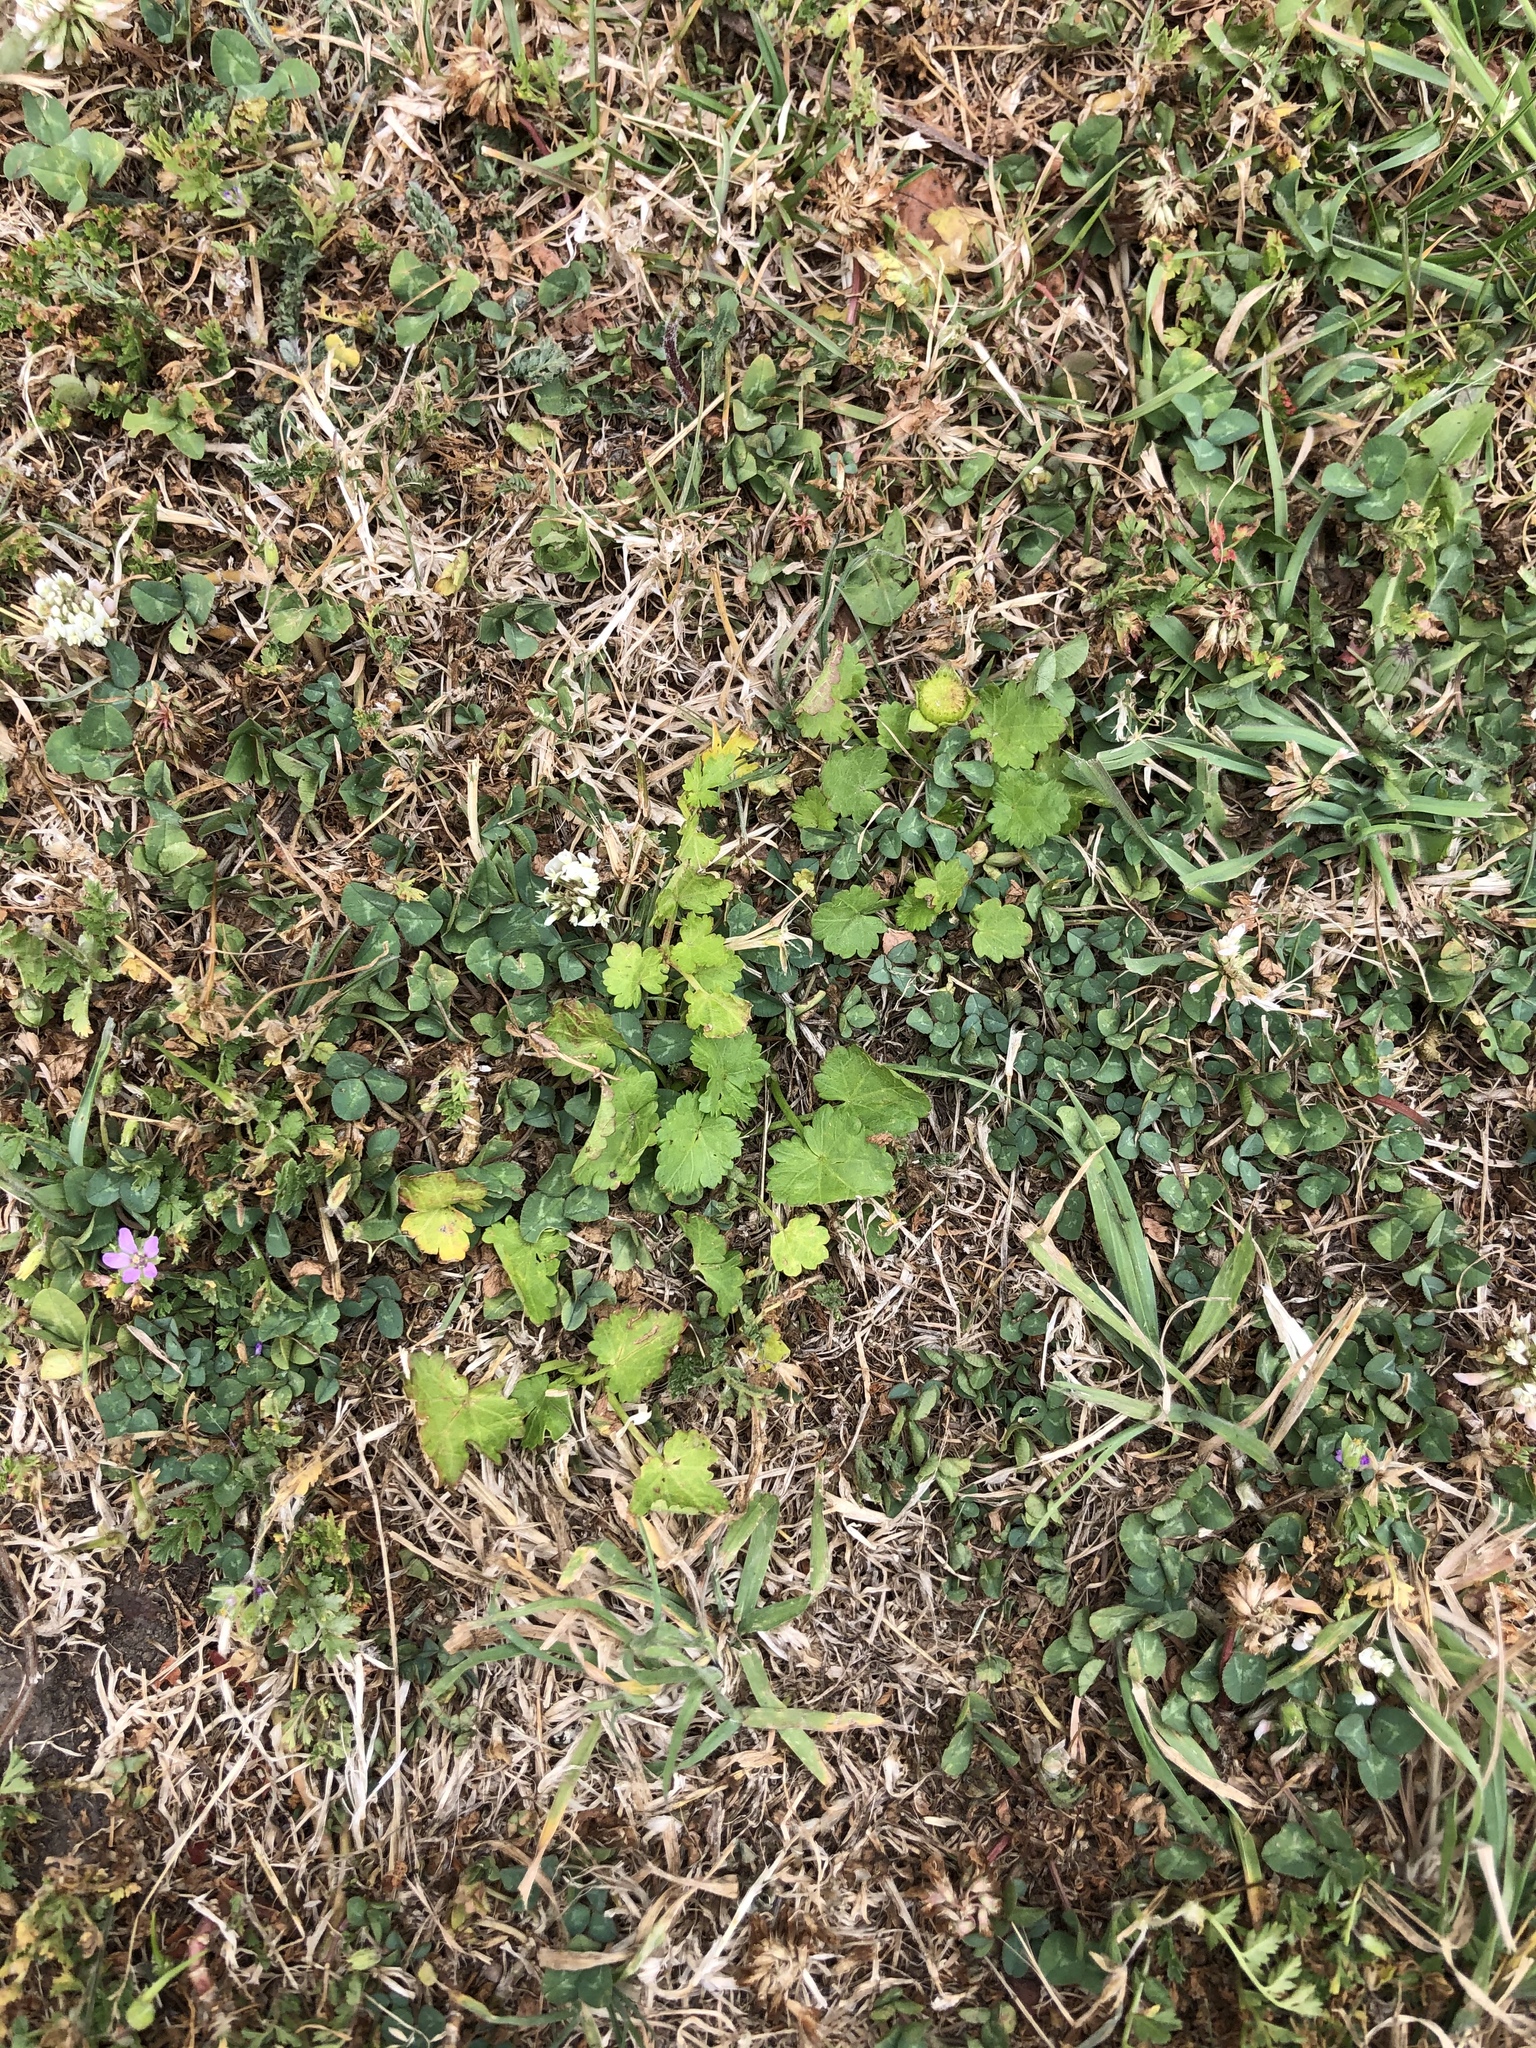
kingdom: Plantae
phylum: Tracheophyta
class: Magnoliopsida
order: Malvales
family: Malvaceae
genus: Modiola
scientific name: Modiola caroliniana
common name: Carolina bristlemallow
